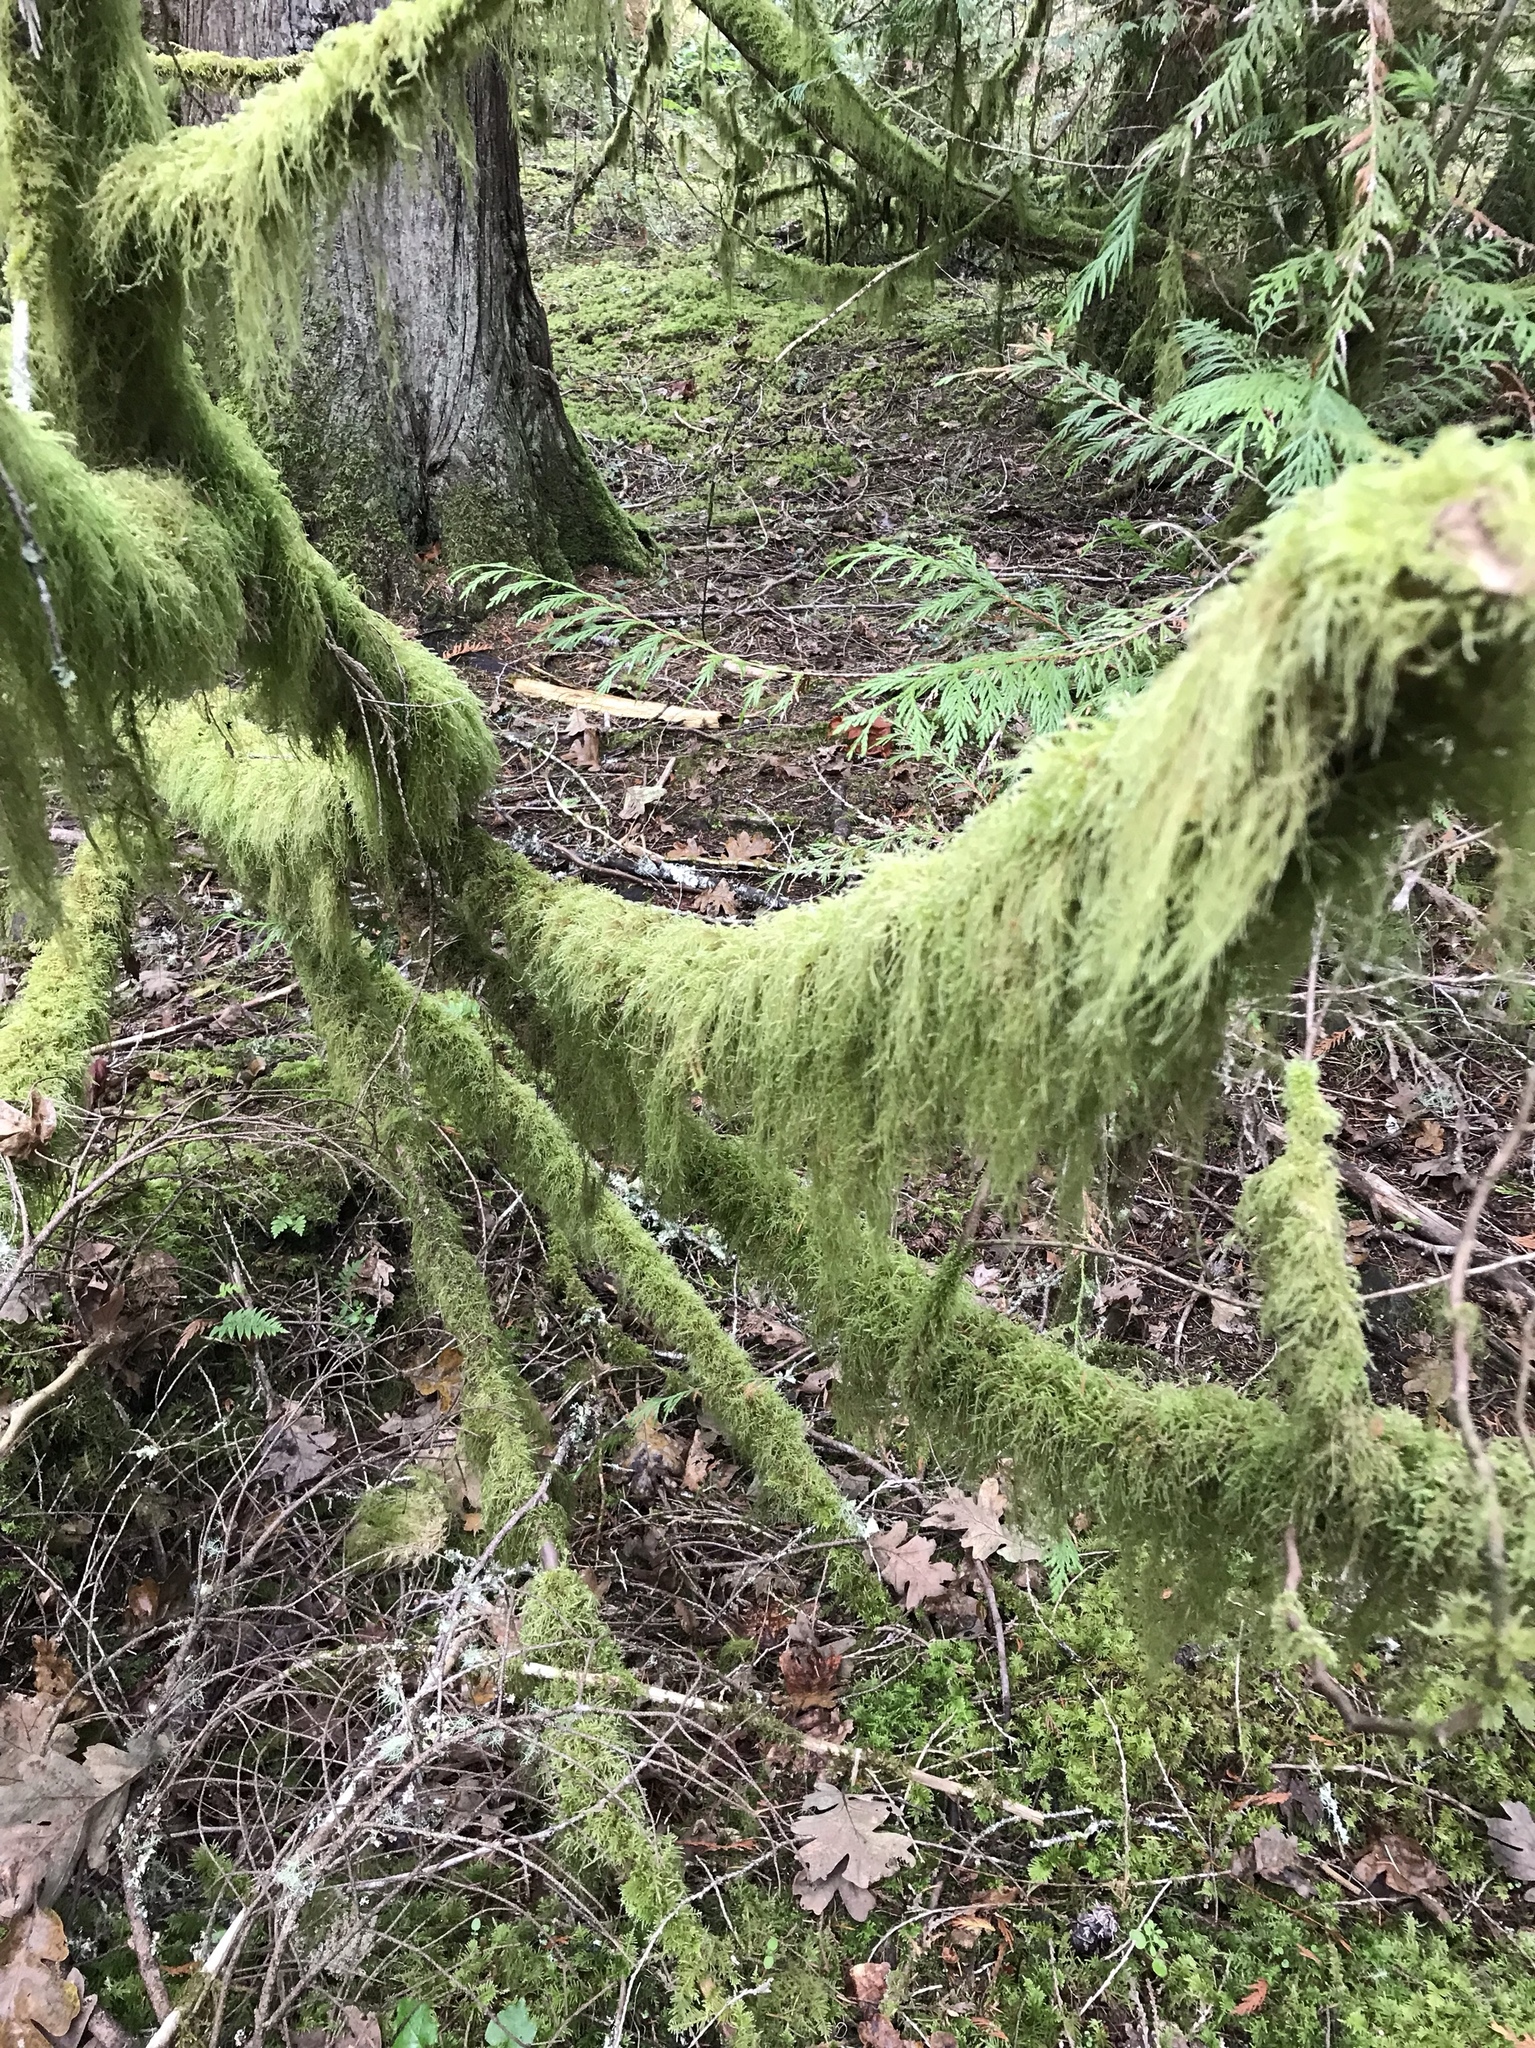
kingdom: Plantae
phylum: Bryophyta
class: Bryopsida
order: Hypnales
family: Lembophyllaceae
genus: Pseudisothecium
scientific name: Pseudisothecium stoloniferum
